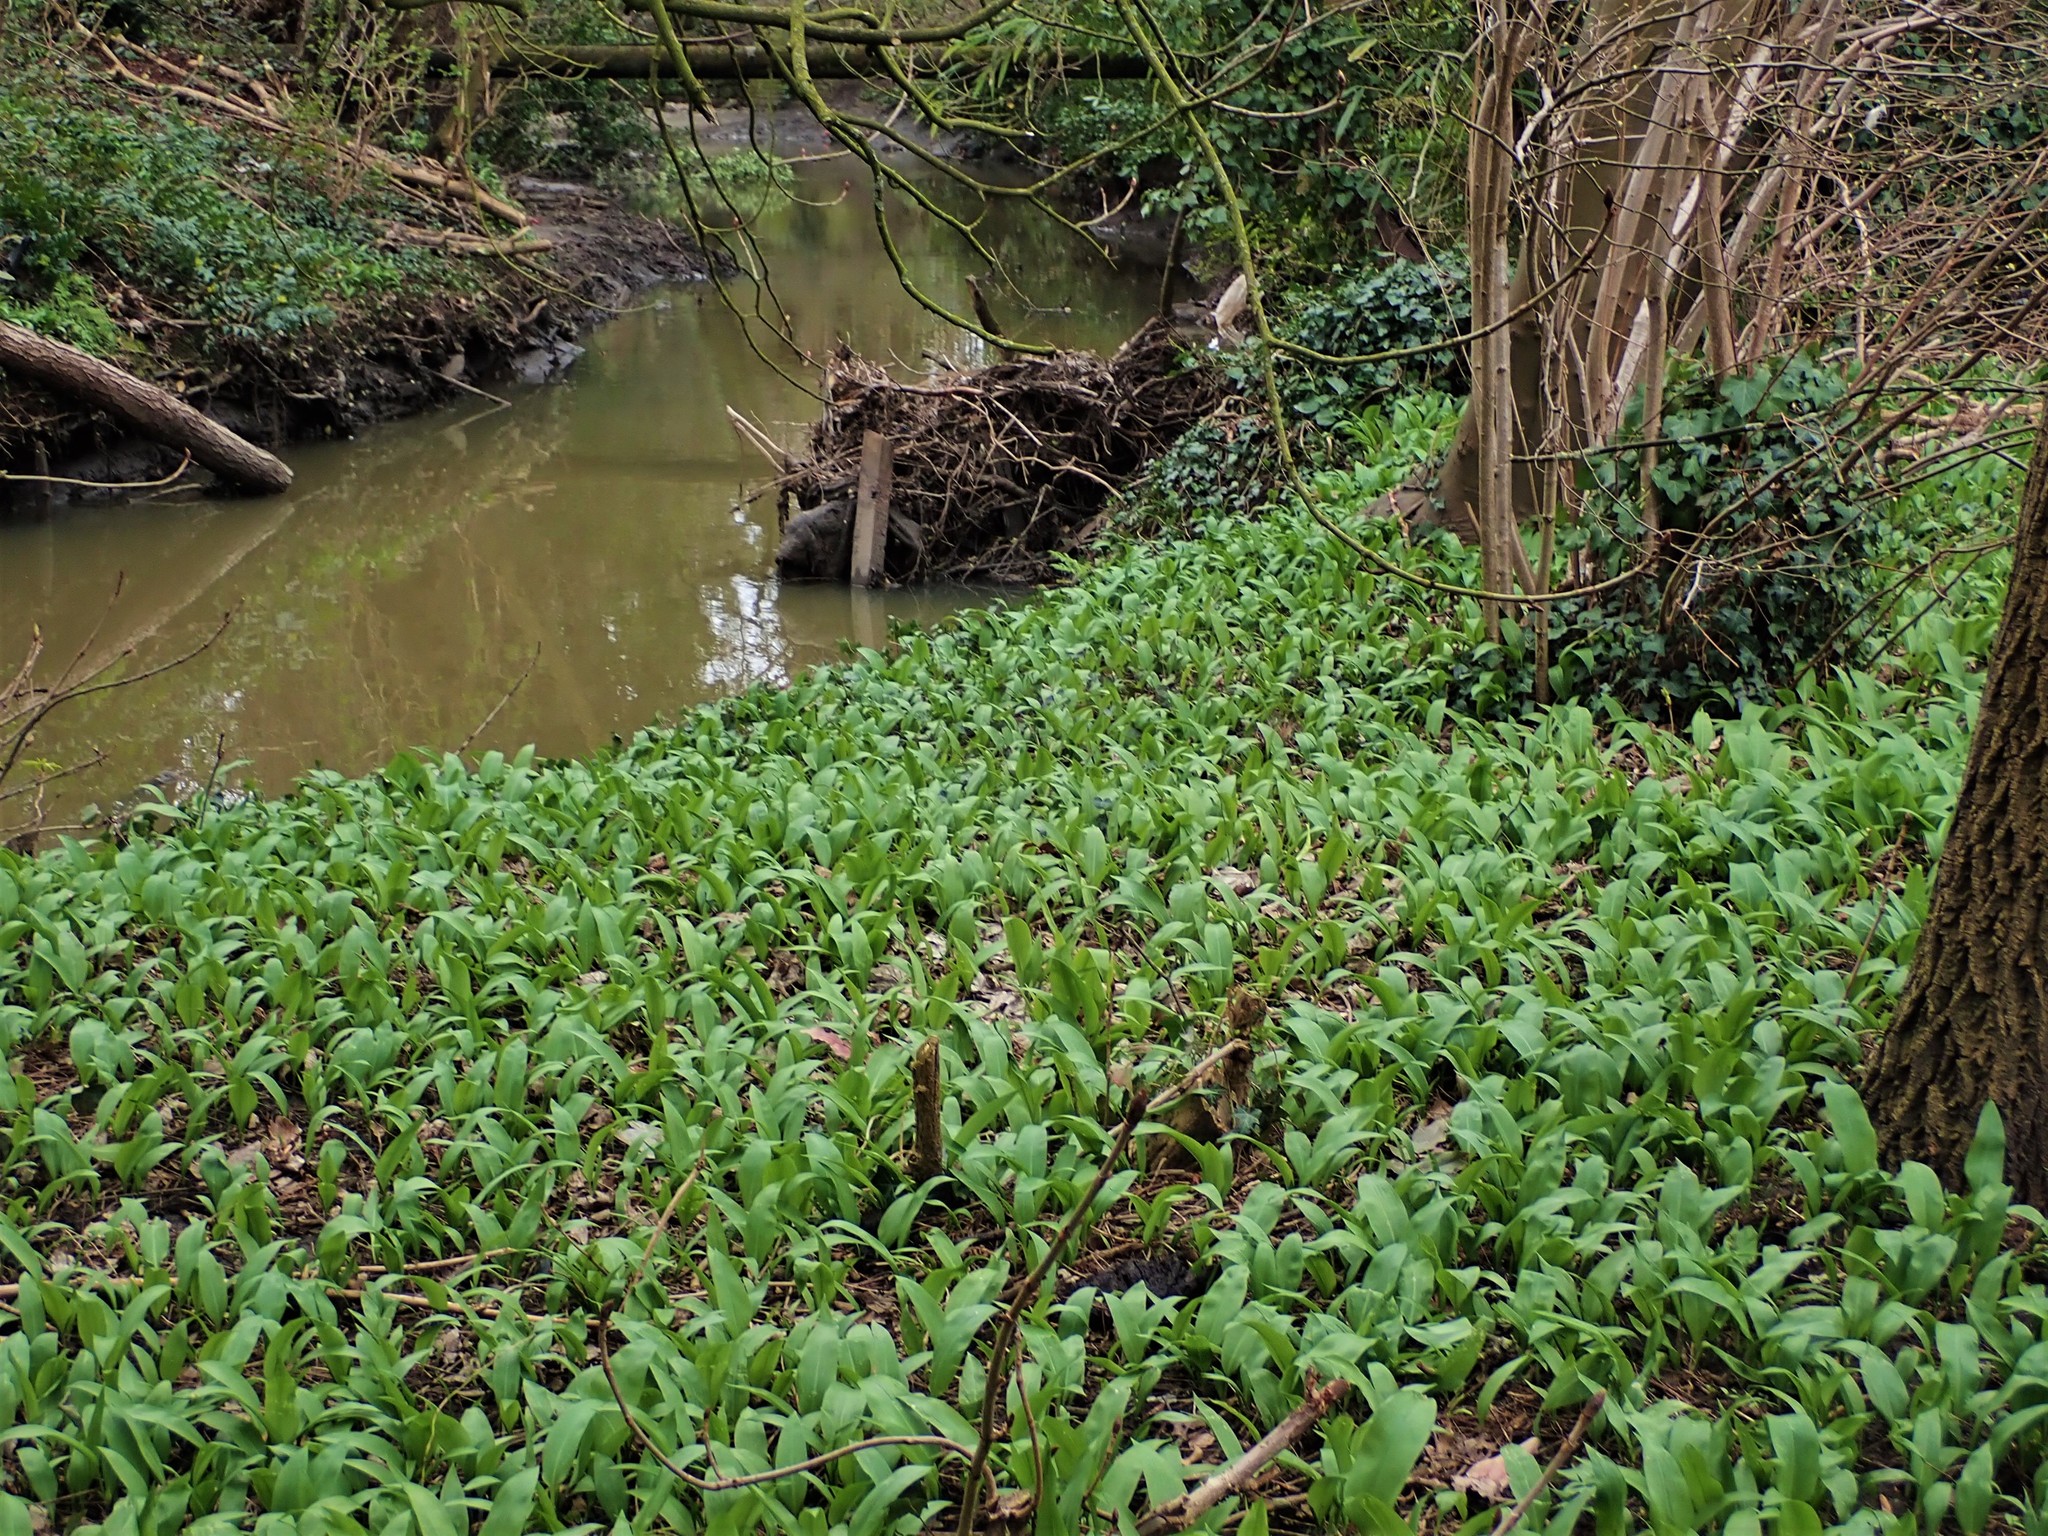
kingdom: Plantae
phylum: Tracheophyta
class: Liliopsida
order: Asparagales
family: Amaryllidaceae
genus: Allium
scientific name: Allium ursinum
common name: Ramsons
